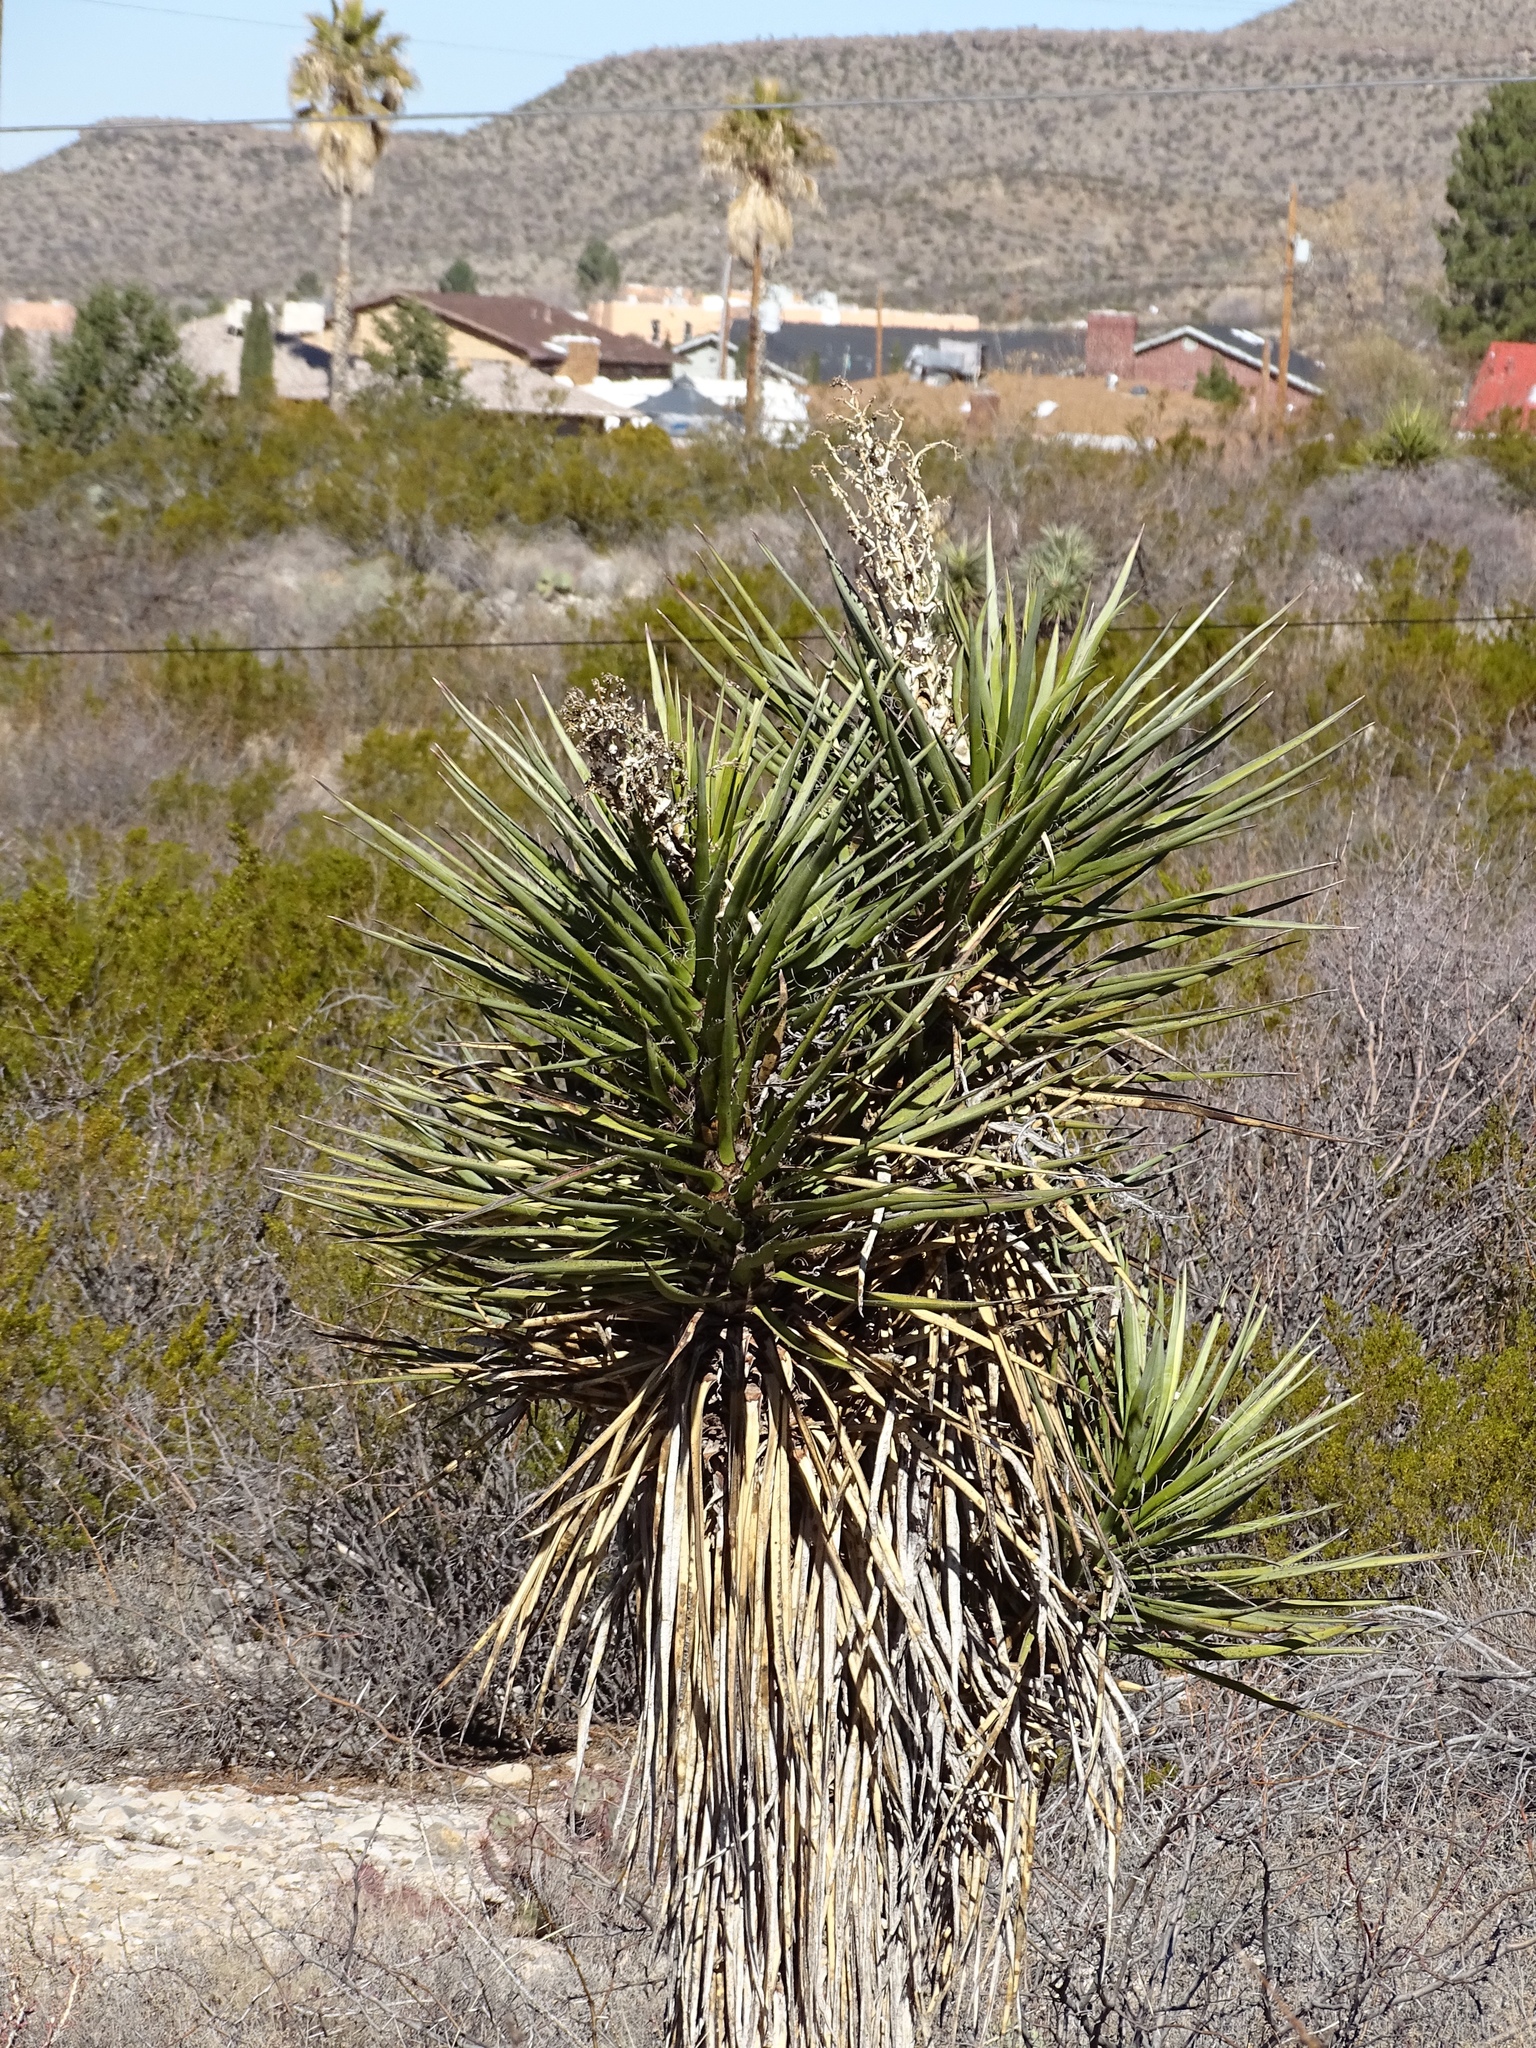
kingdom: Plantae
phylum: Tracheophyta
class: Liliopsida
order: Asparagales
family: Asparagaceae
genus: Yucca
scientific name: Yucca treculiana
